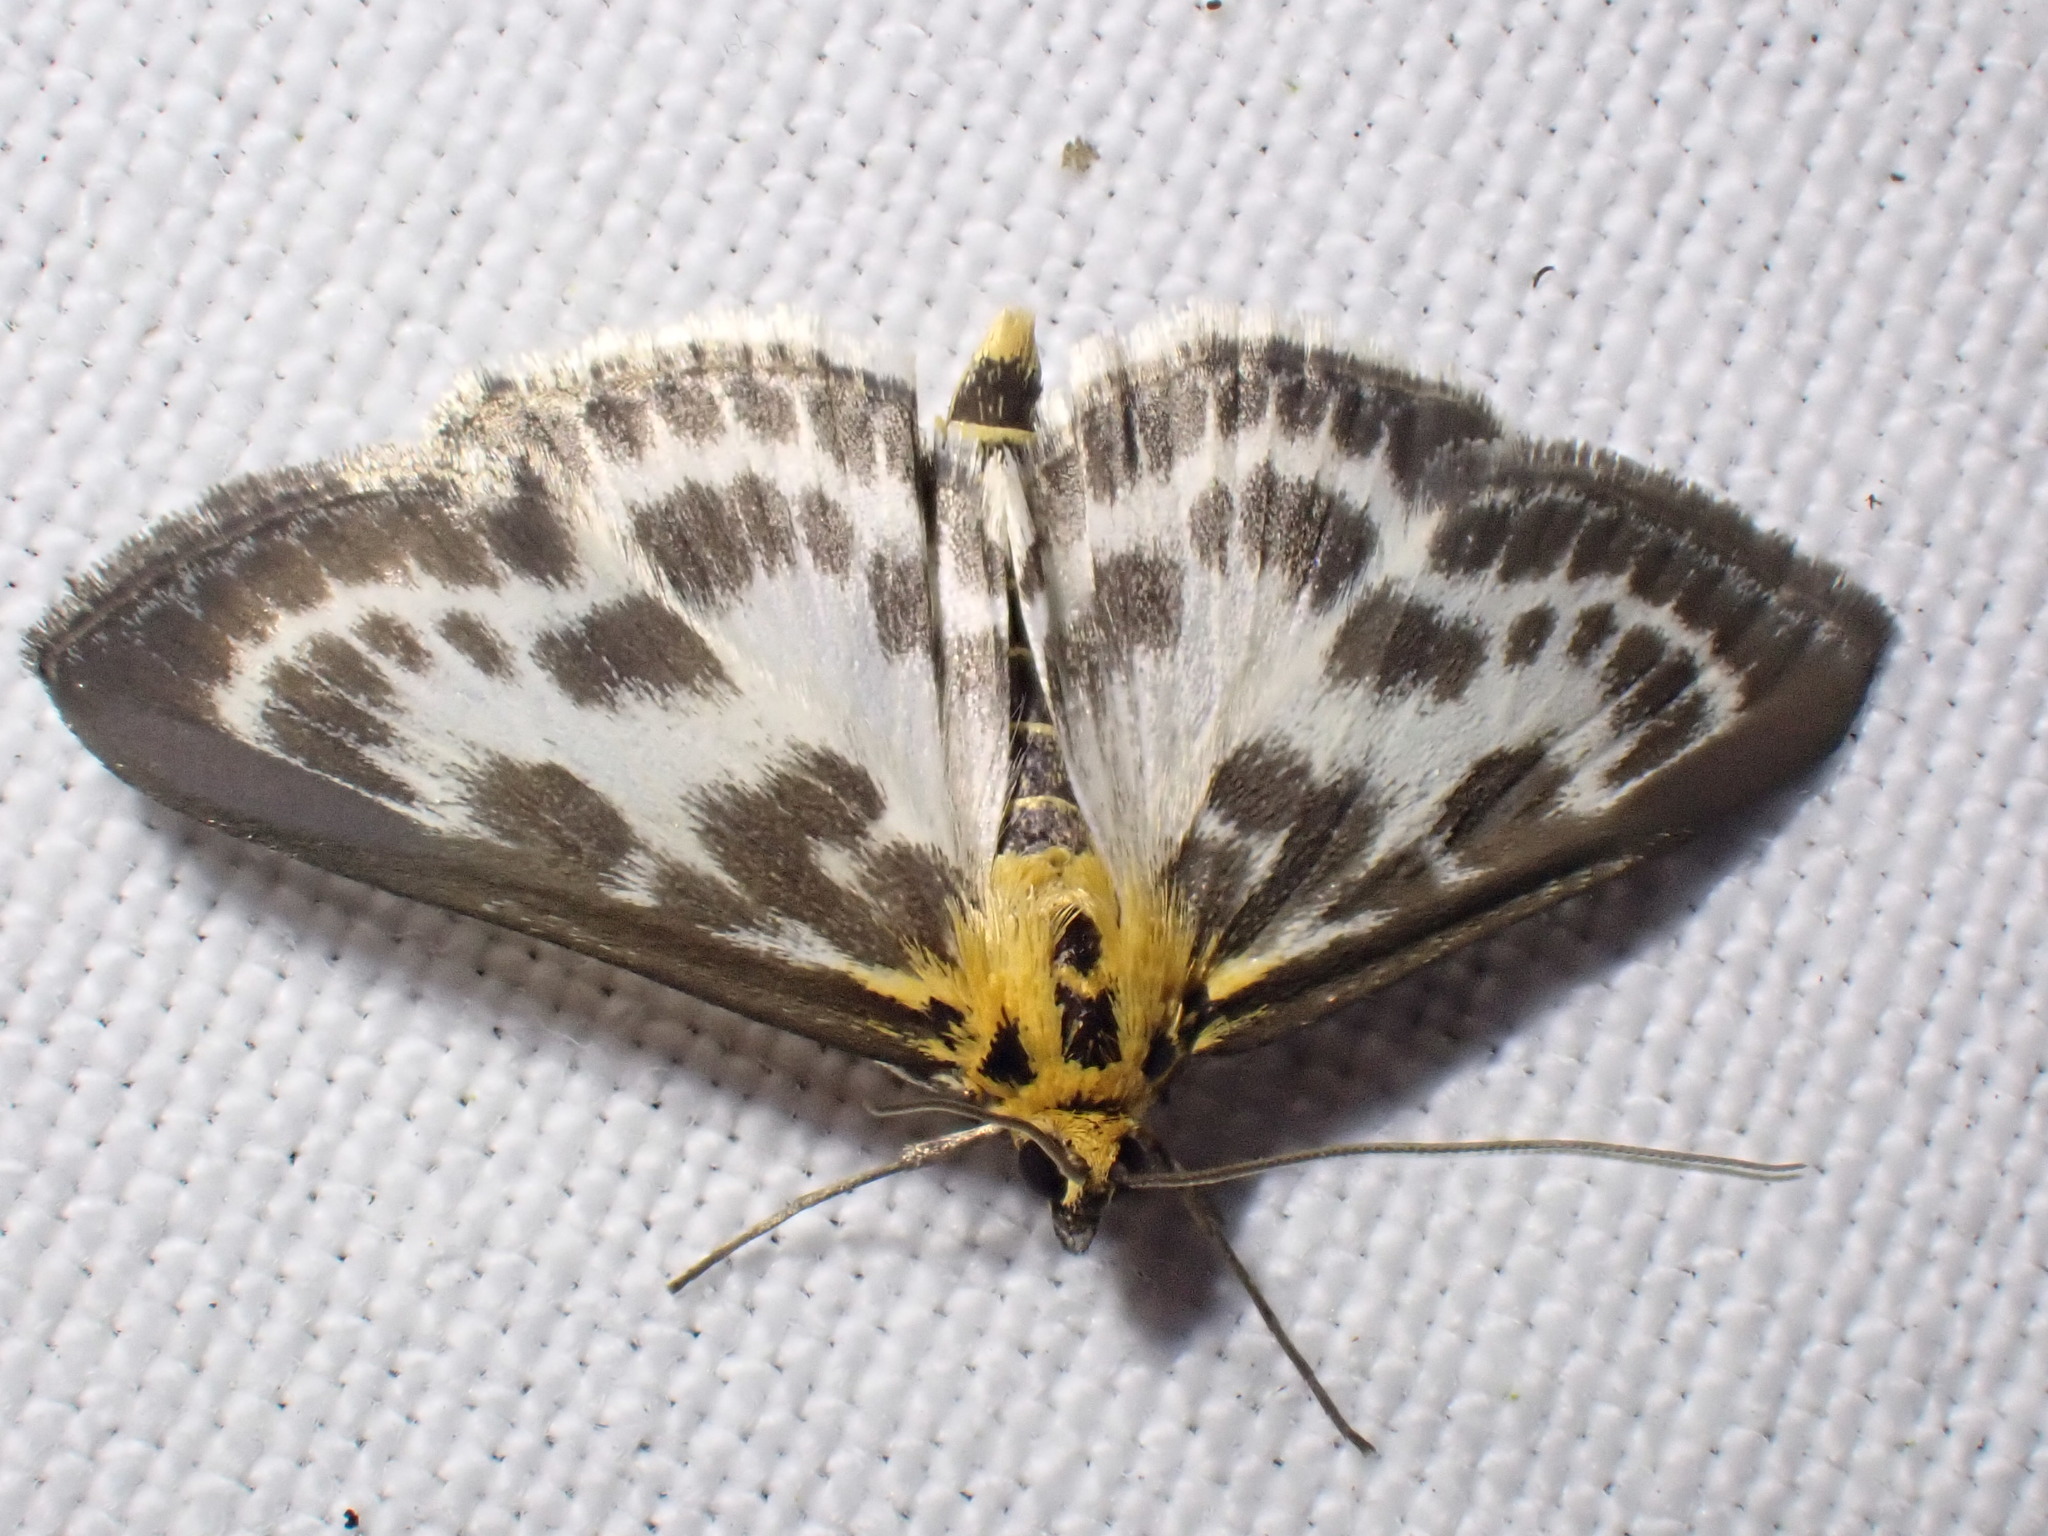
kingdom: Animalia
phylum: Arthropoda
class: Insecta
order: Lepidoptera
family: Crambidae
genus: Anania
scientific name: Anania hortulata
